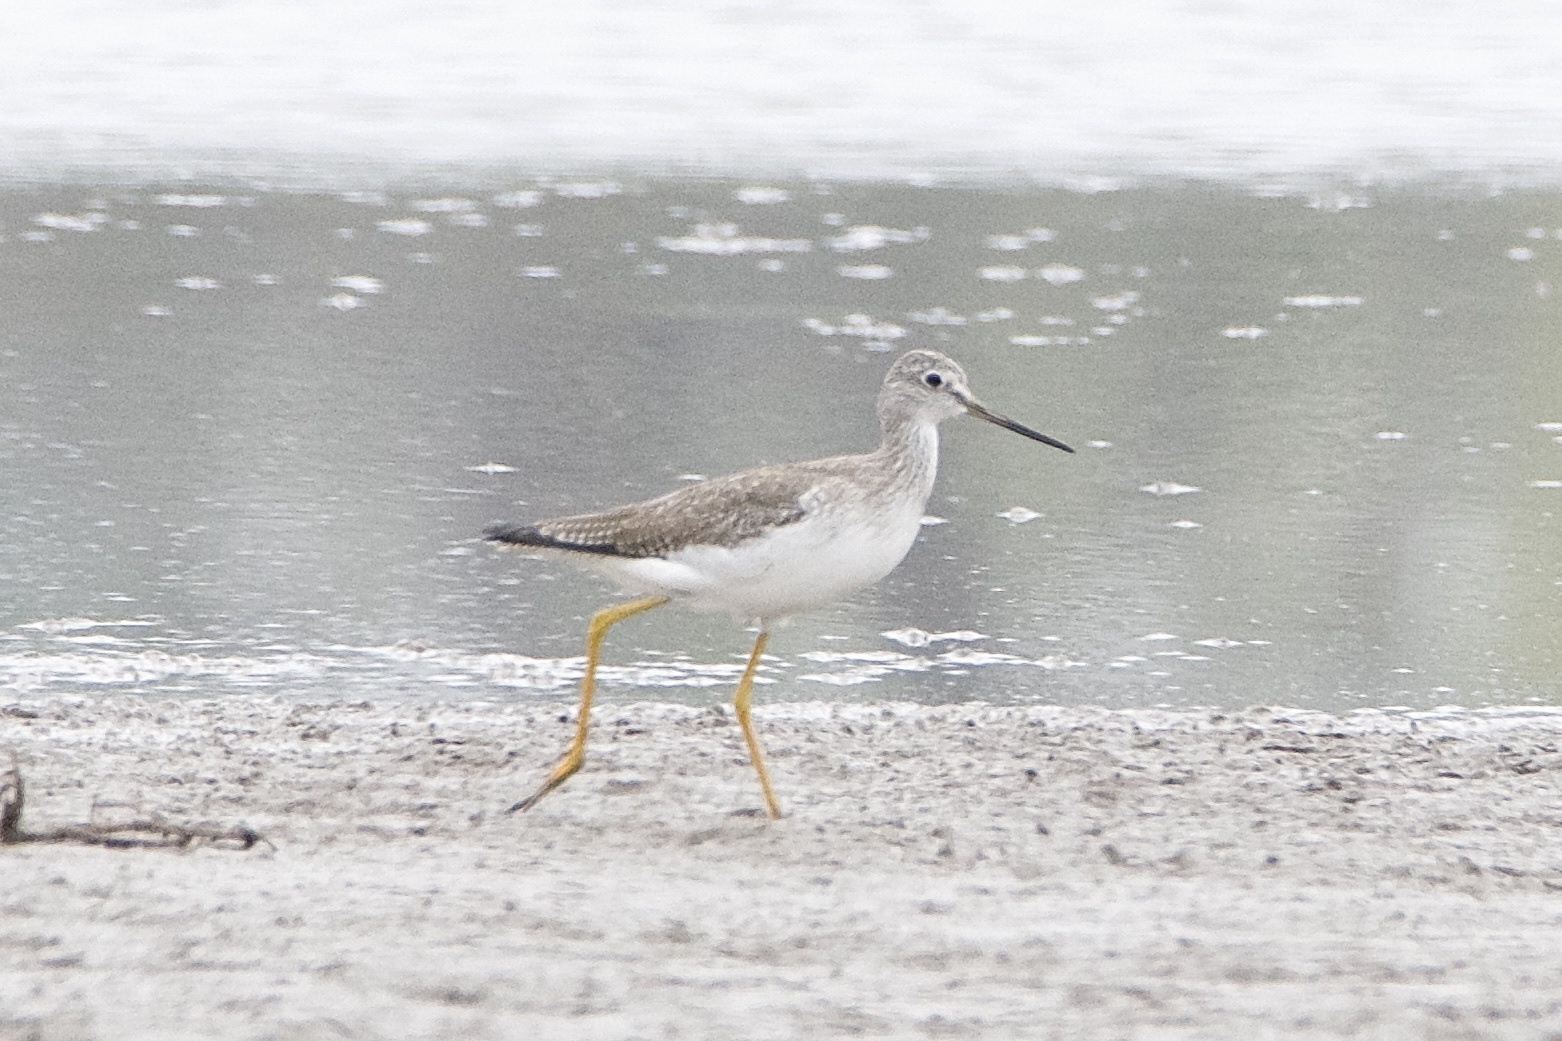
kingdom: Animalia
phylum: Chordata
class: Aves
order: Charadriiformes
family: Scolopacidae
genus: Tringa
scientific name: Tringa melanoleuca
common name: Greater yellowlegs
